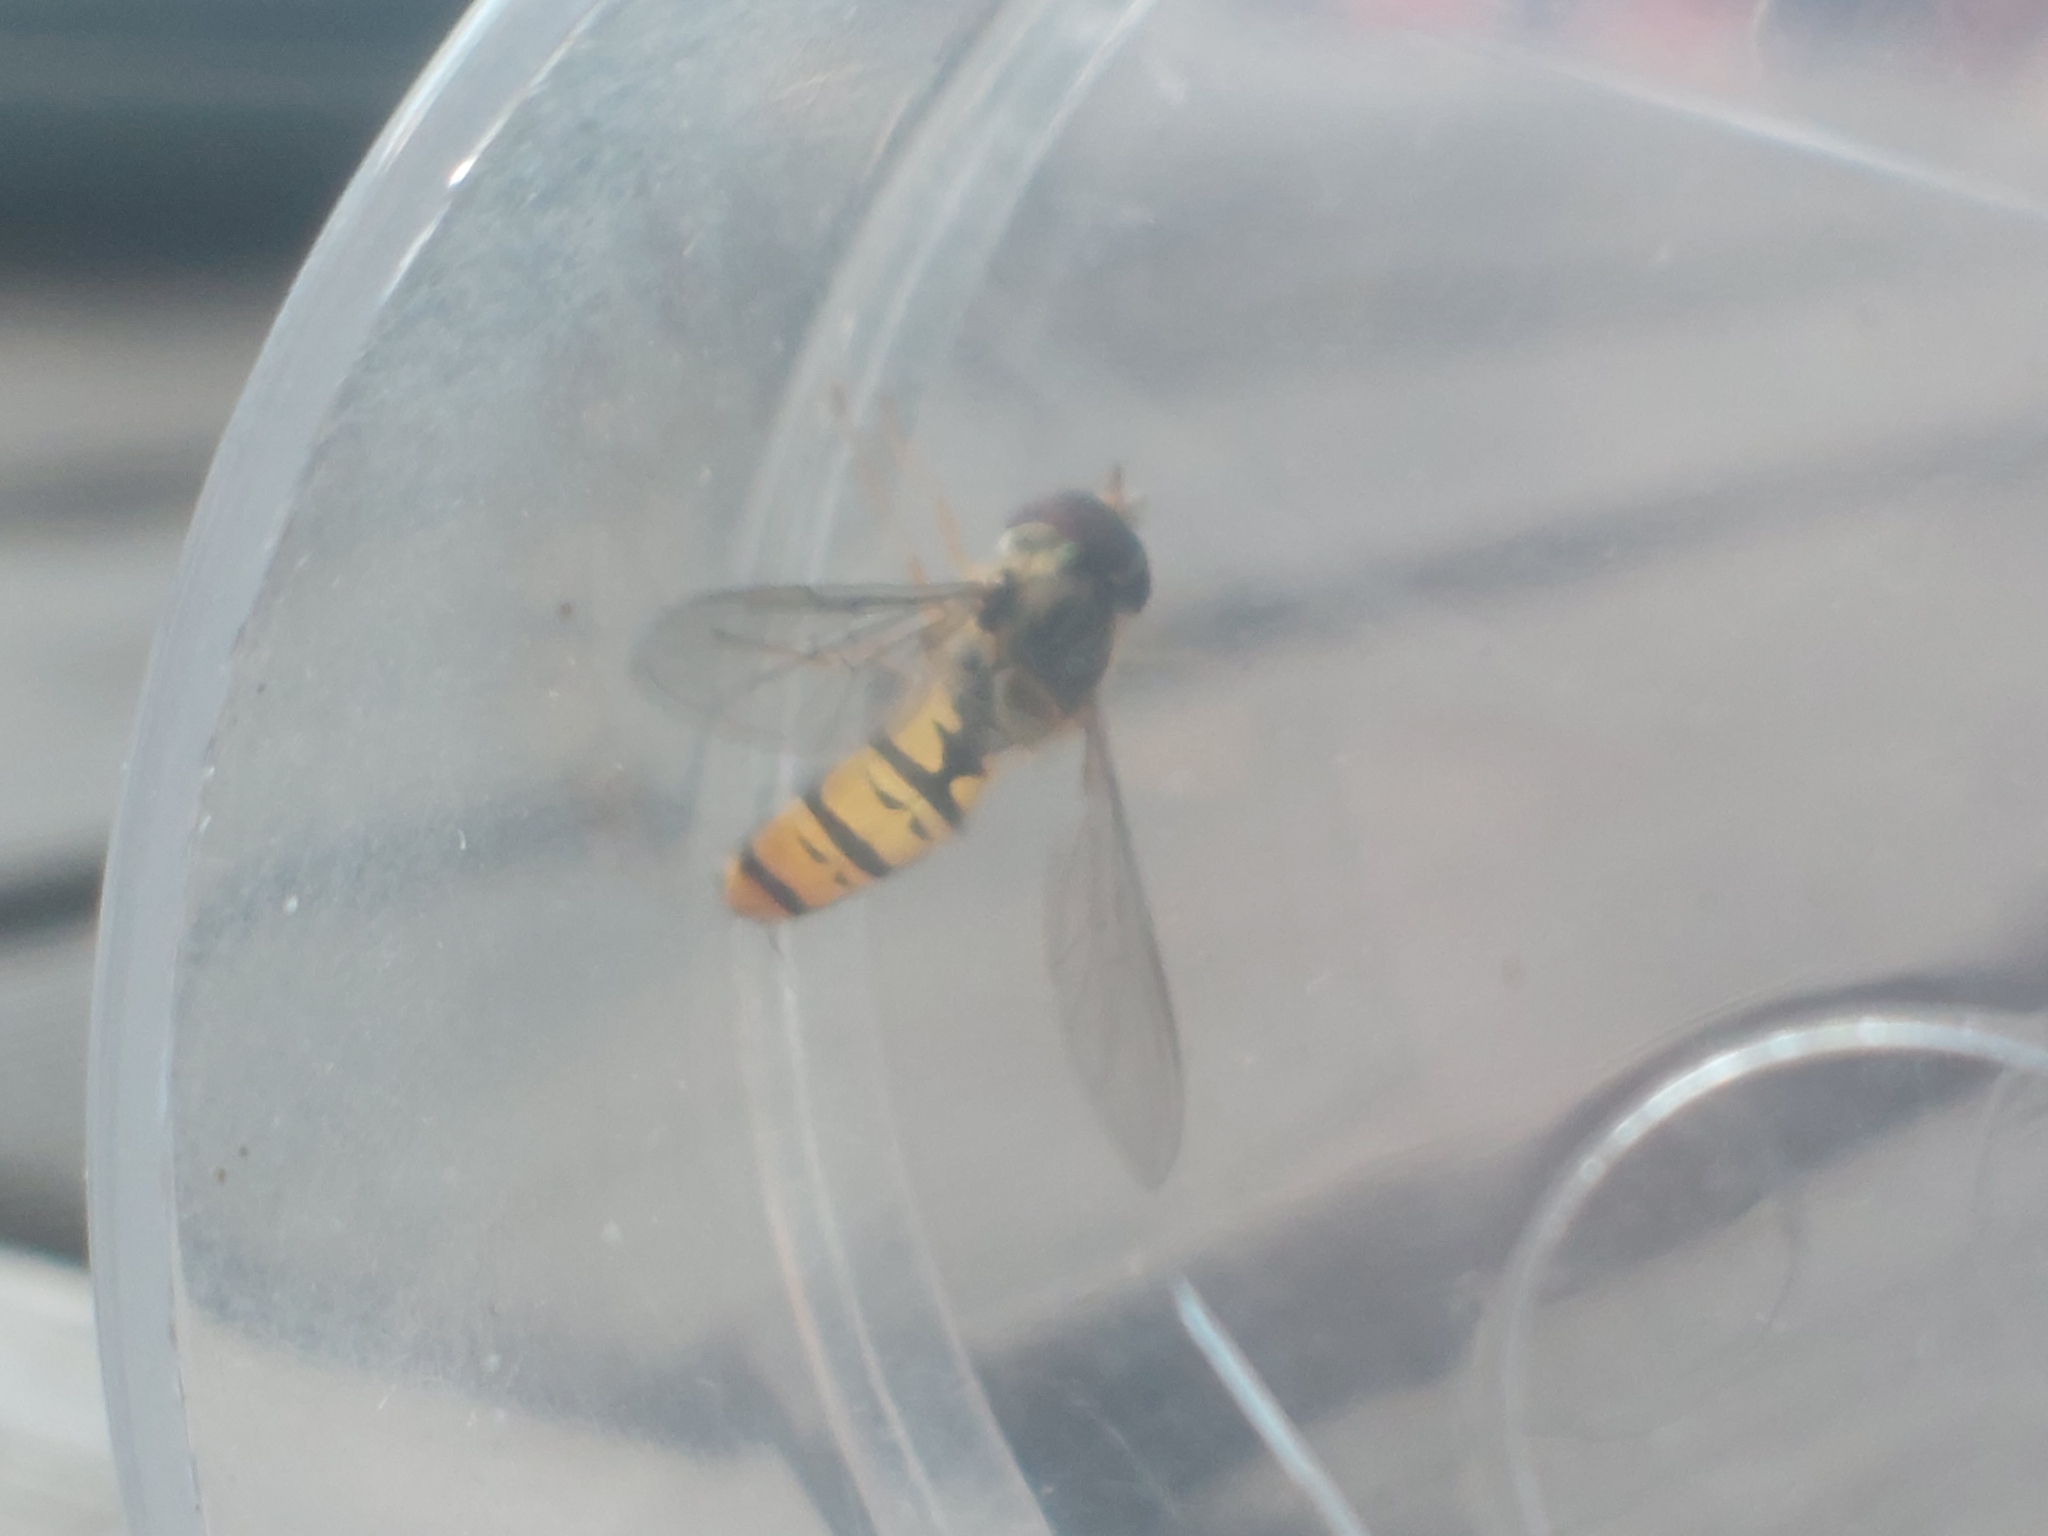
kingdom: Animalia
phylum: Arthropoda
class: Insecta
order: Diptera
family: Syrphidae
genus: Episyrphus
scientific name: Episyrphus balteatus
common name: Marmalade hoverfly
